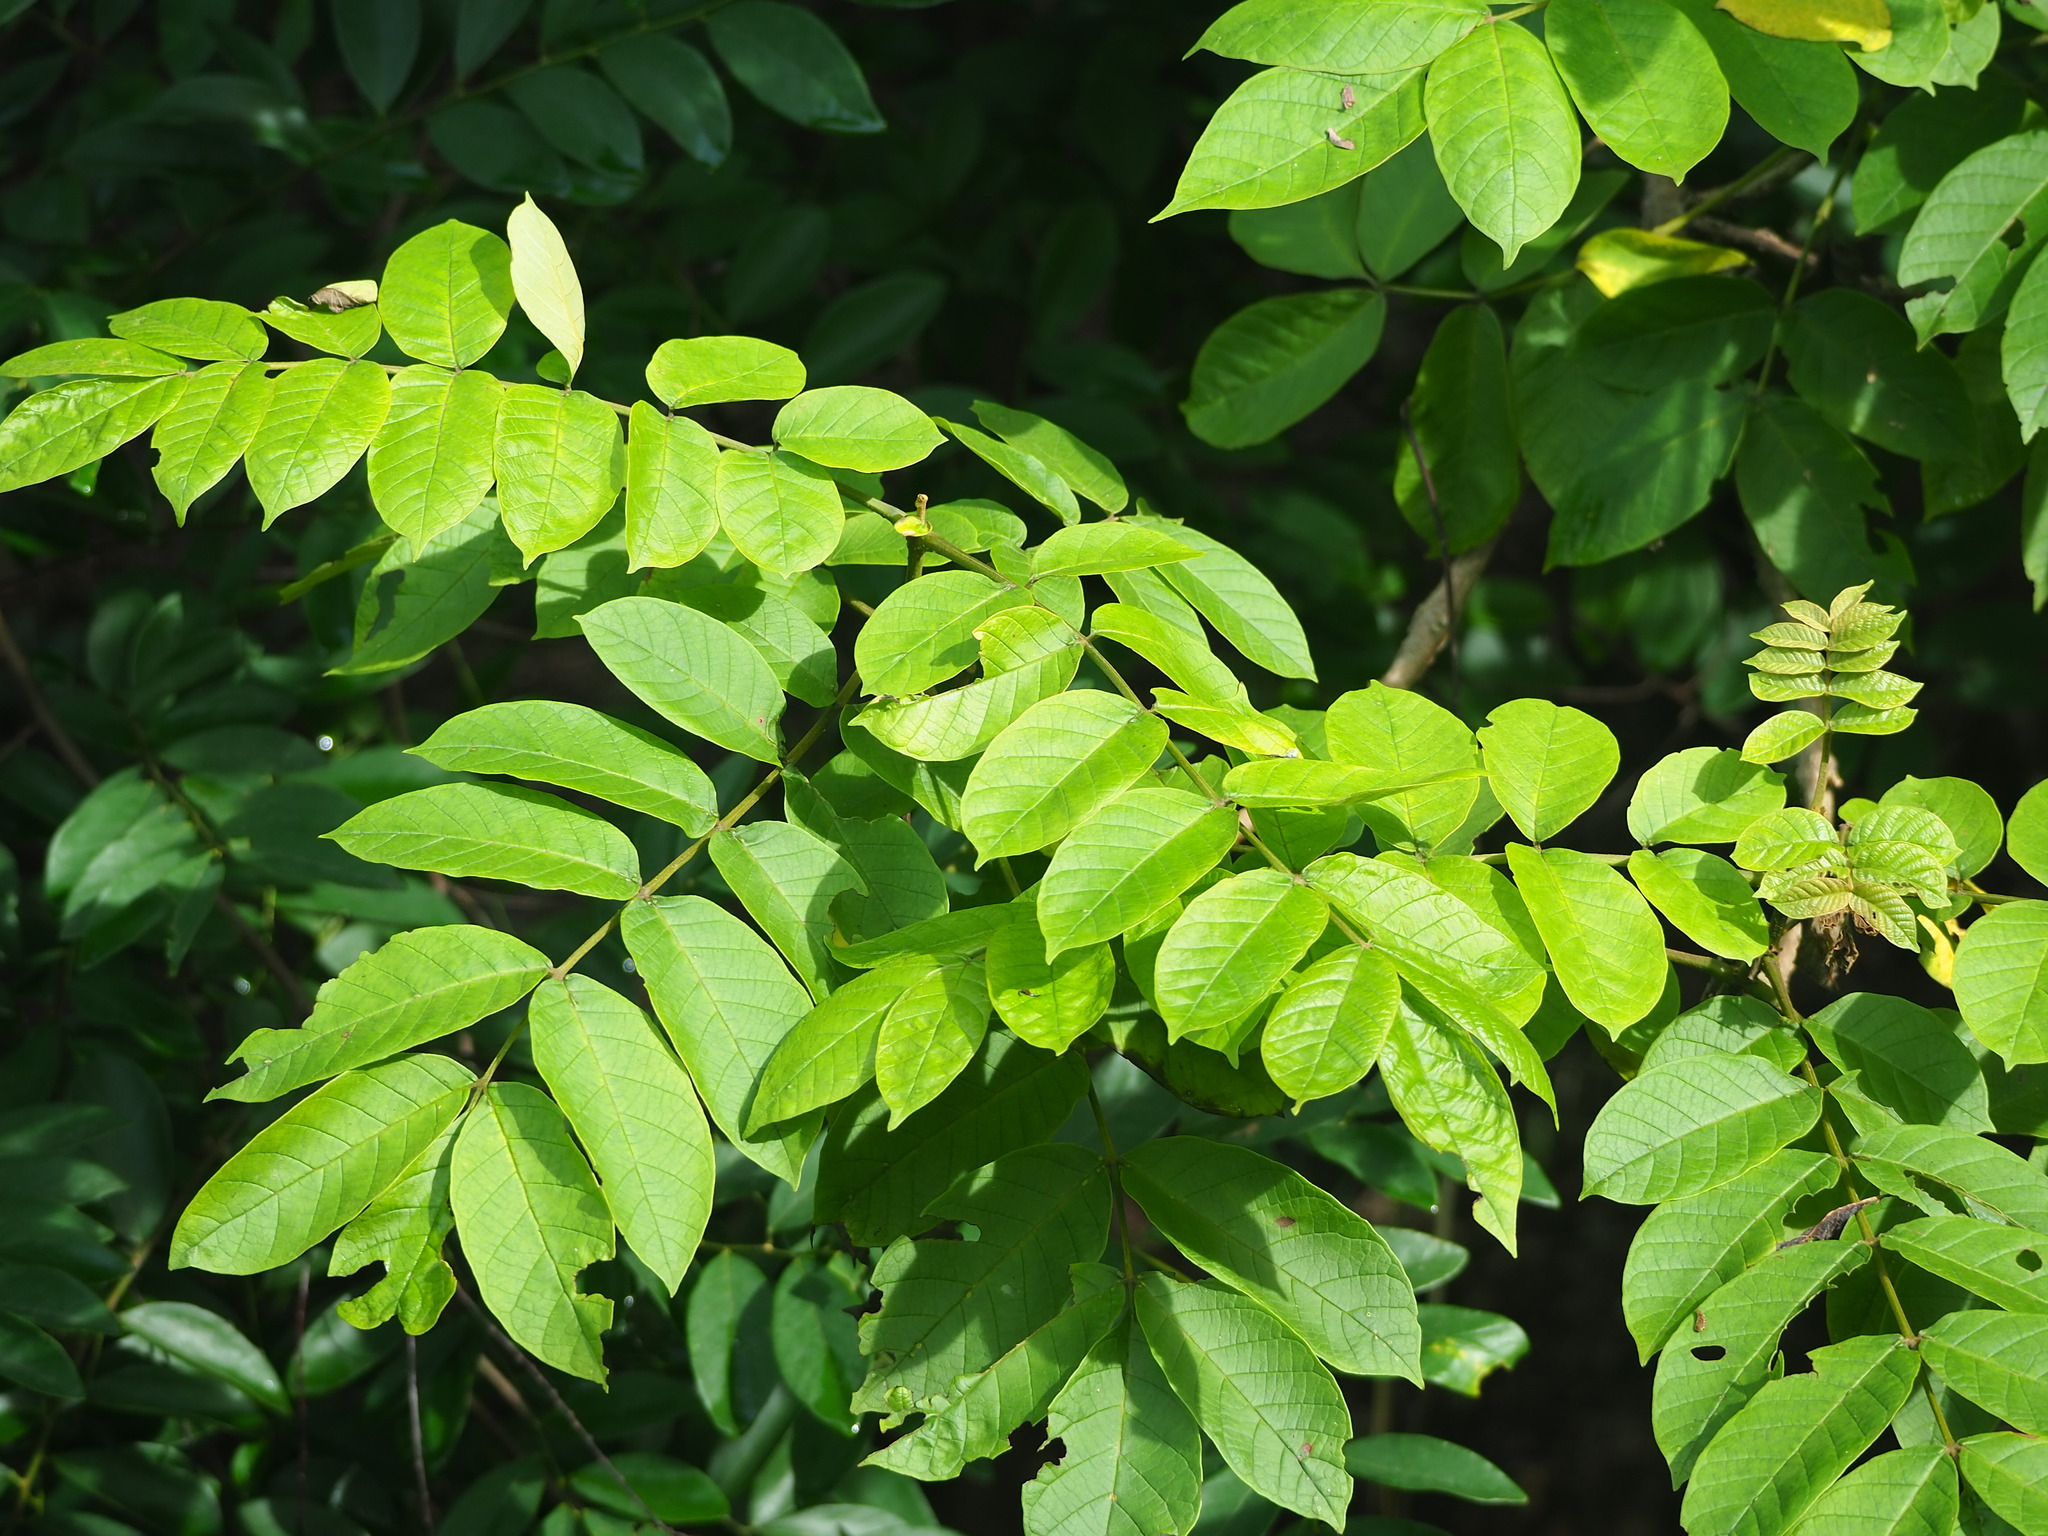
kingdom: Plantae
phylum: Tracheophyta
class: Magnoliopsida
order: Lamiales
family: Bignoniaceae
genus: Spathodea
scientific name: Spathodea campanulata
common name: African tuliptree
